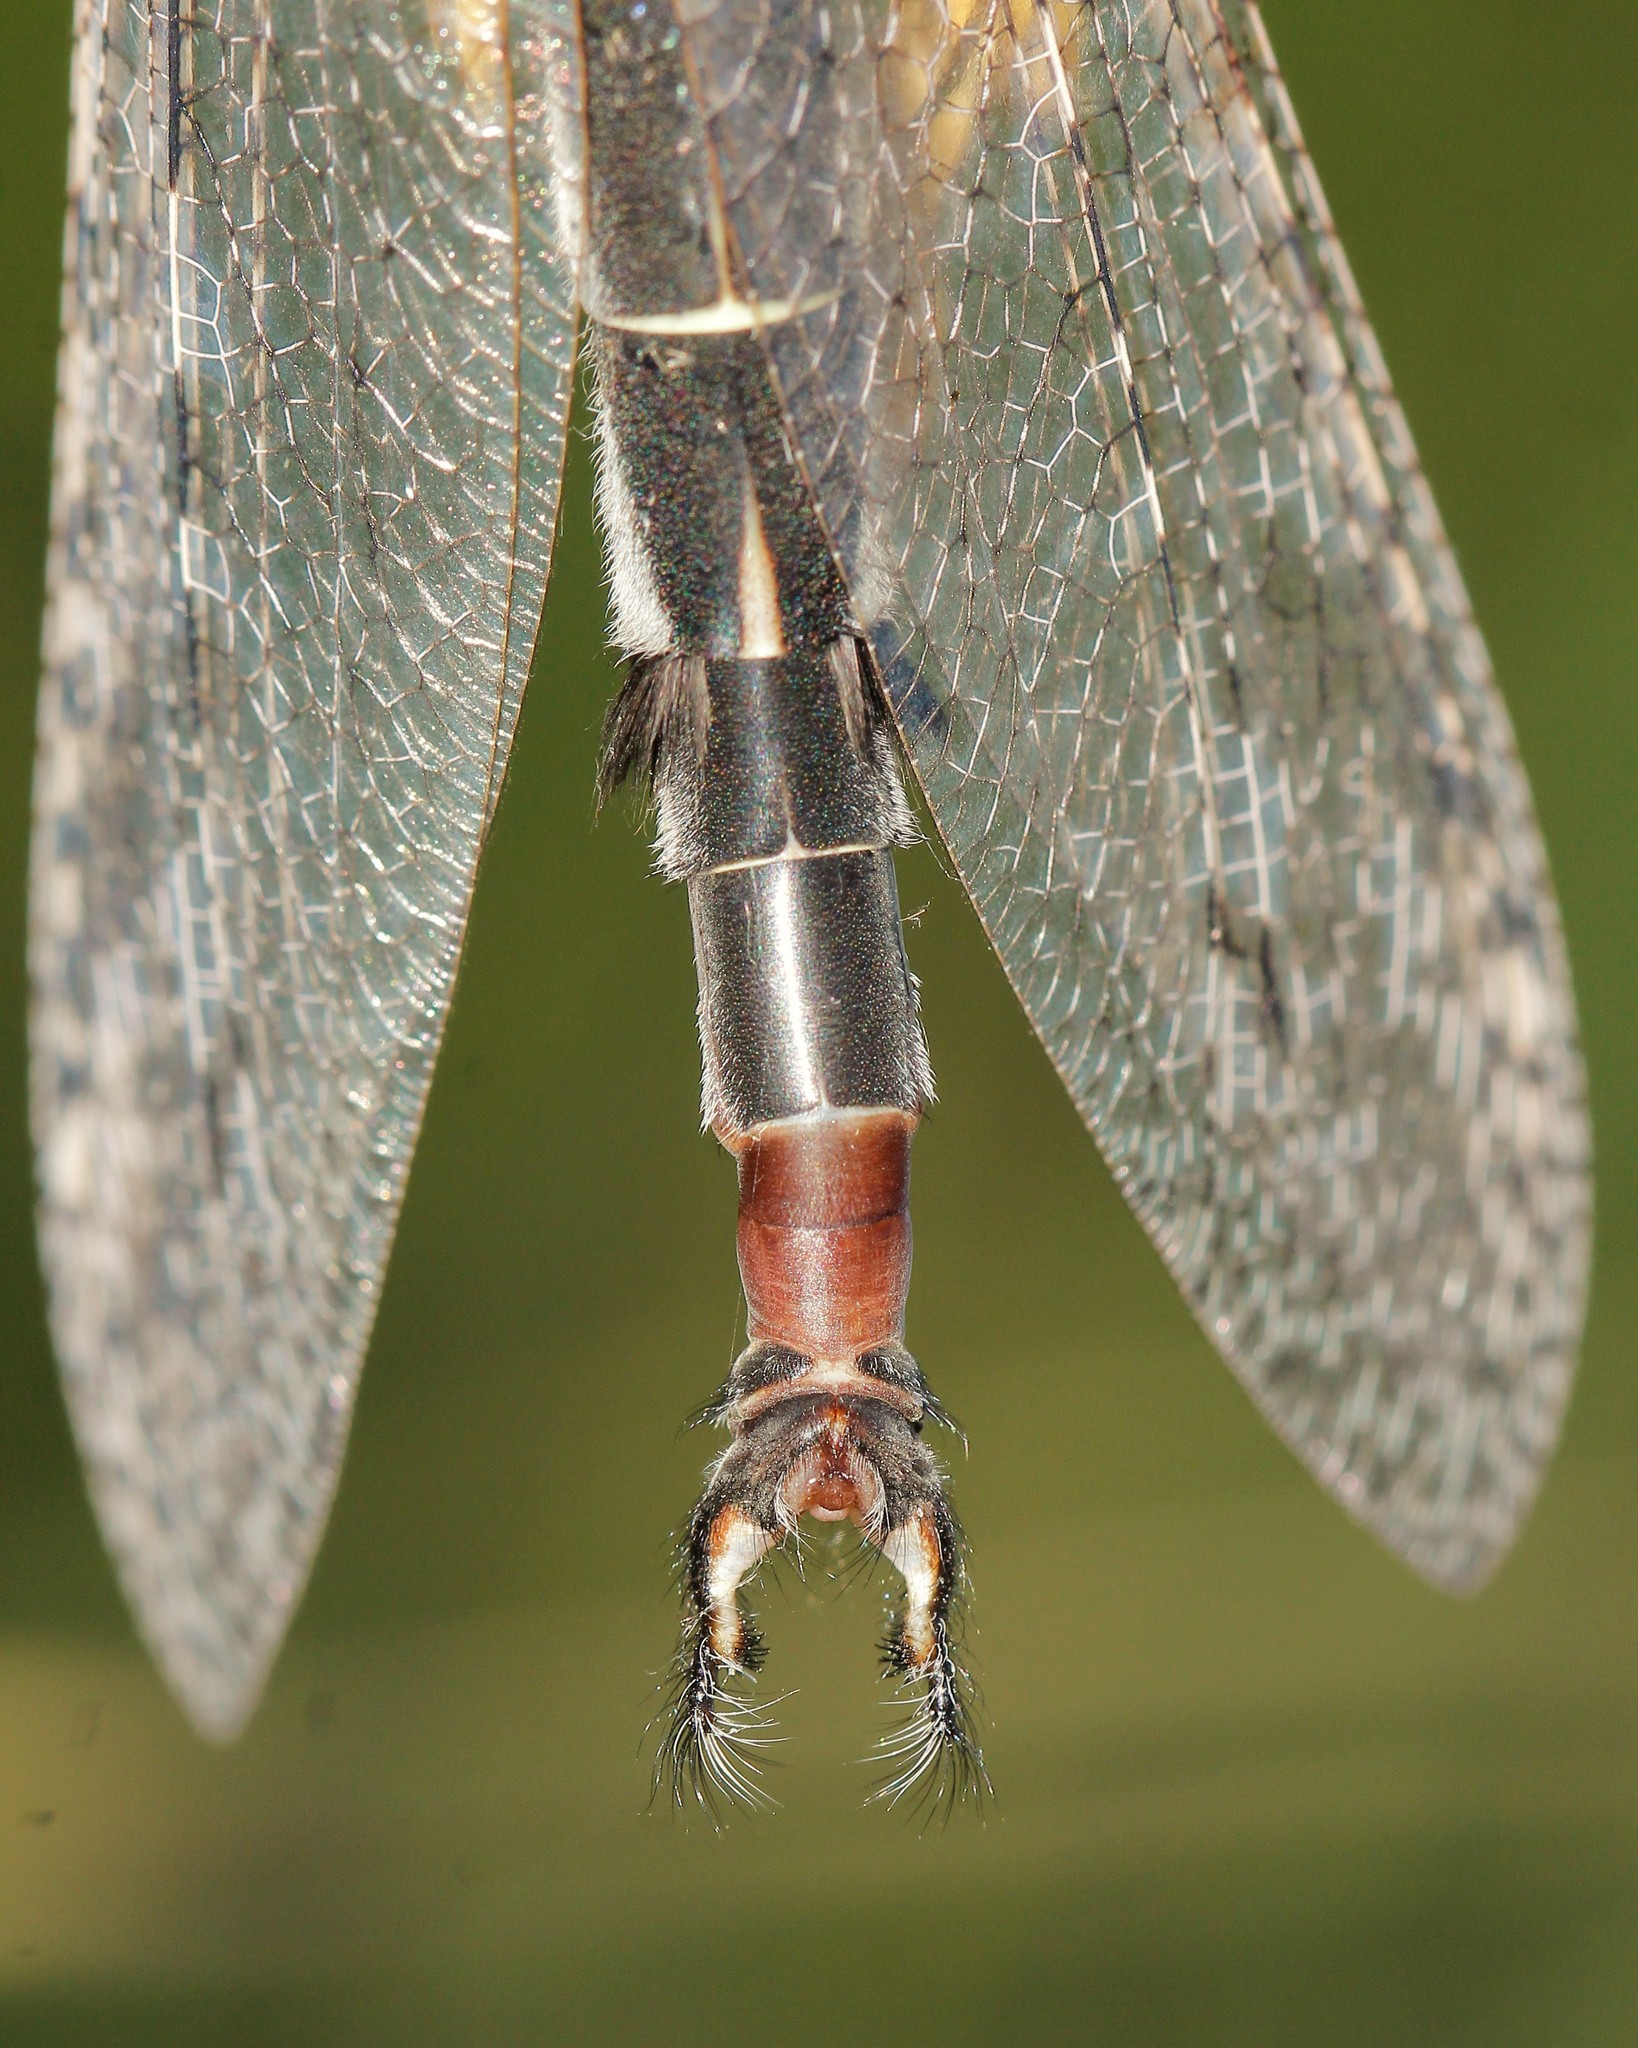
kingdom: Animalia
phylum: Arthropoda
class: Insecta
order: Neuroptera
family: Myrmeleontidae
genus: Acanthaclisis
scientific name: Acanthaclisis occitanica
